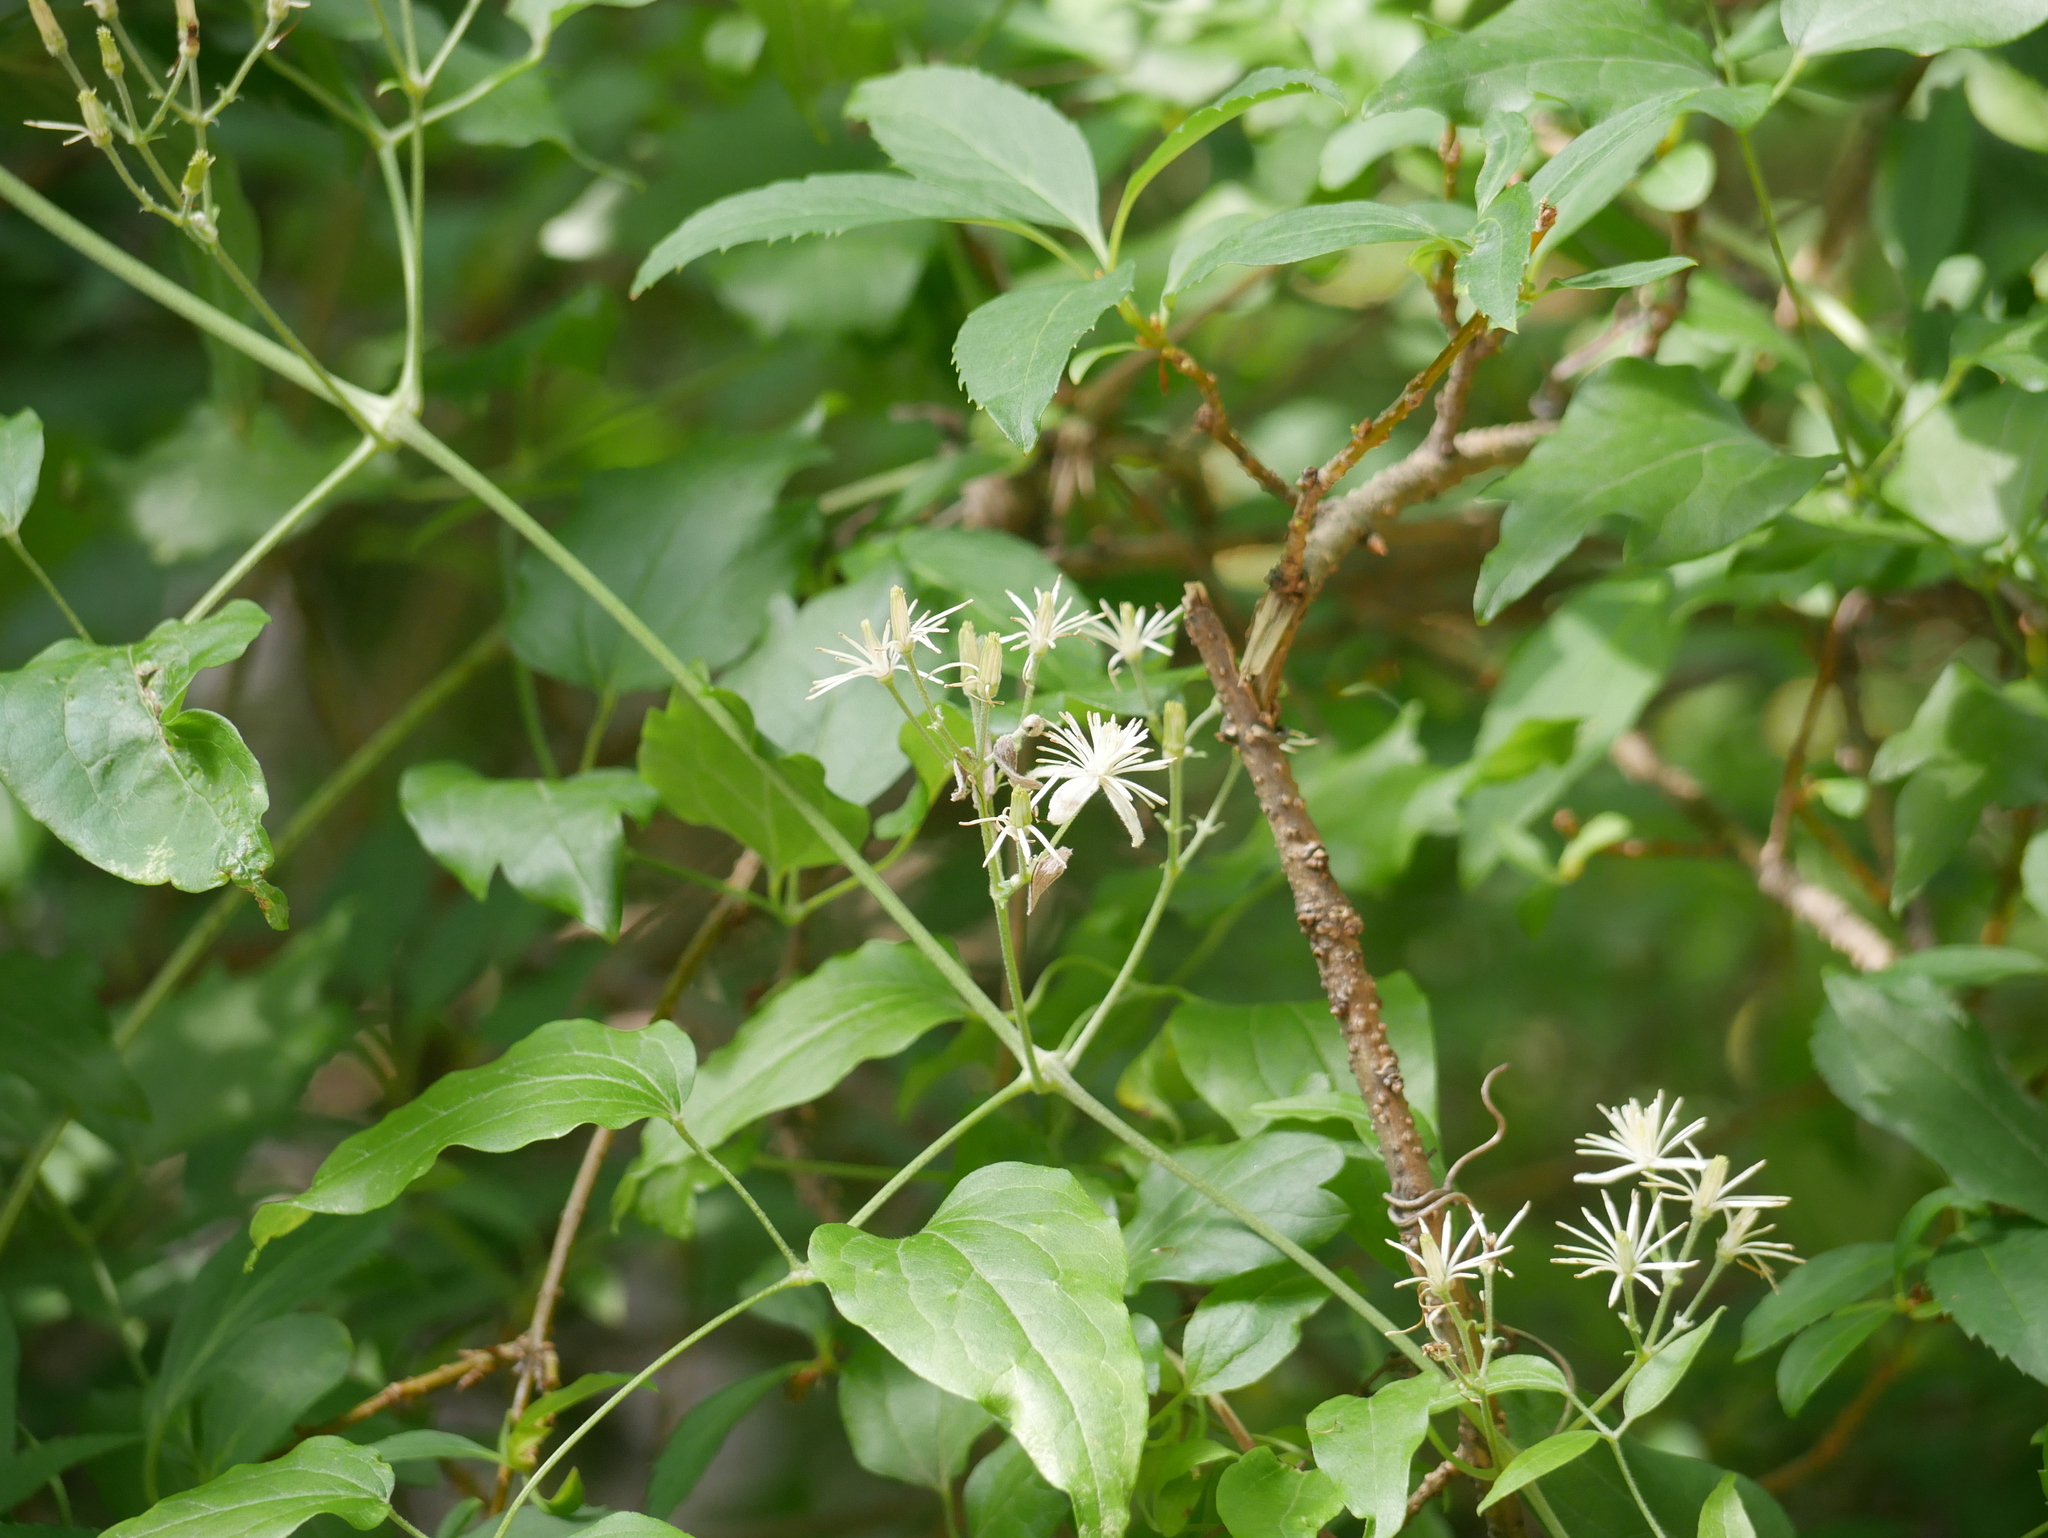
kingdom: Plantae
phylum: Tracheophyta
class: Magnoliopsida
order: Ranunculales
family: Ranunculaceae
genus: Clematis
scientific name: Clematis vitalba
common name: Evergreen clematis
